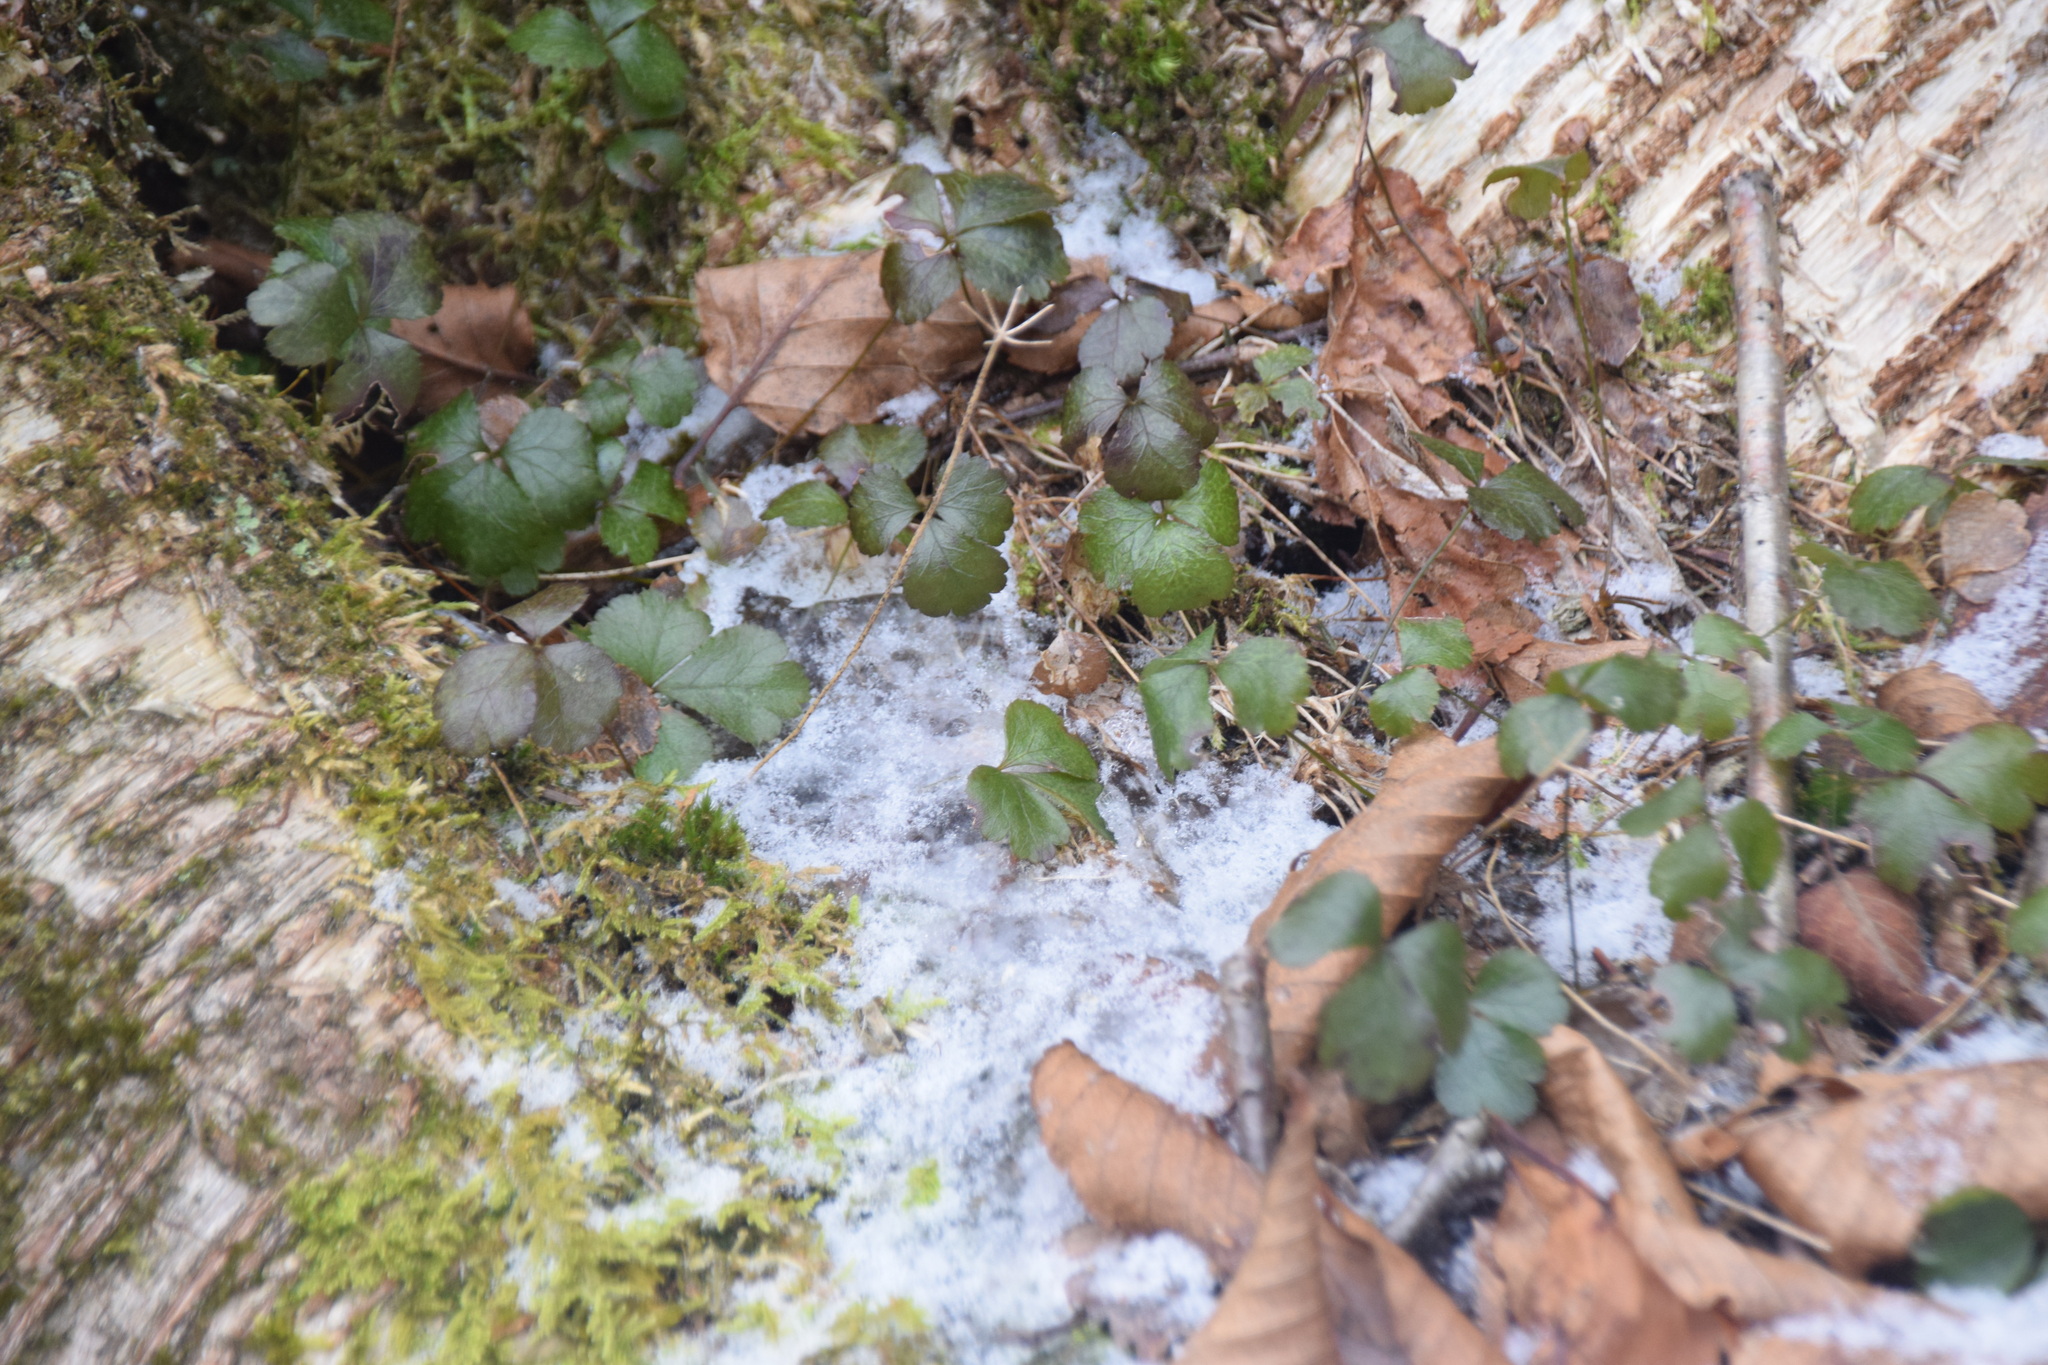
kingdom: Plantae
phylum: Tracheophyta
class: Magnoliopsida
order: Ranunculales
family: Ranunculaceae
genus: Coptis
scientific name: Coptis trifolia
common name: Canker-root
